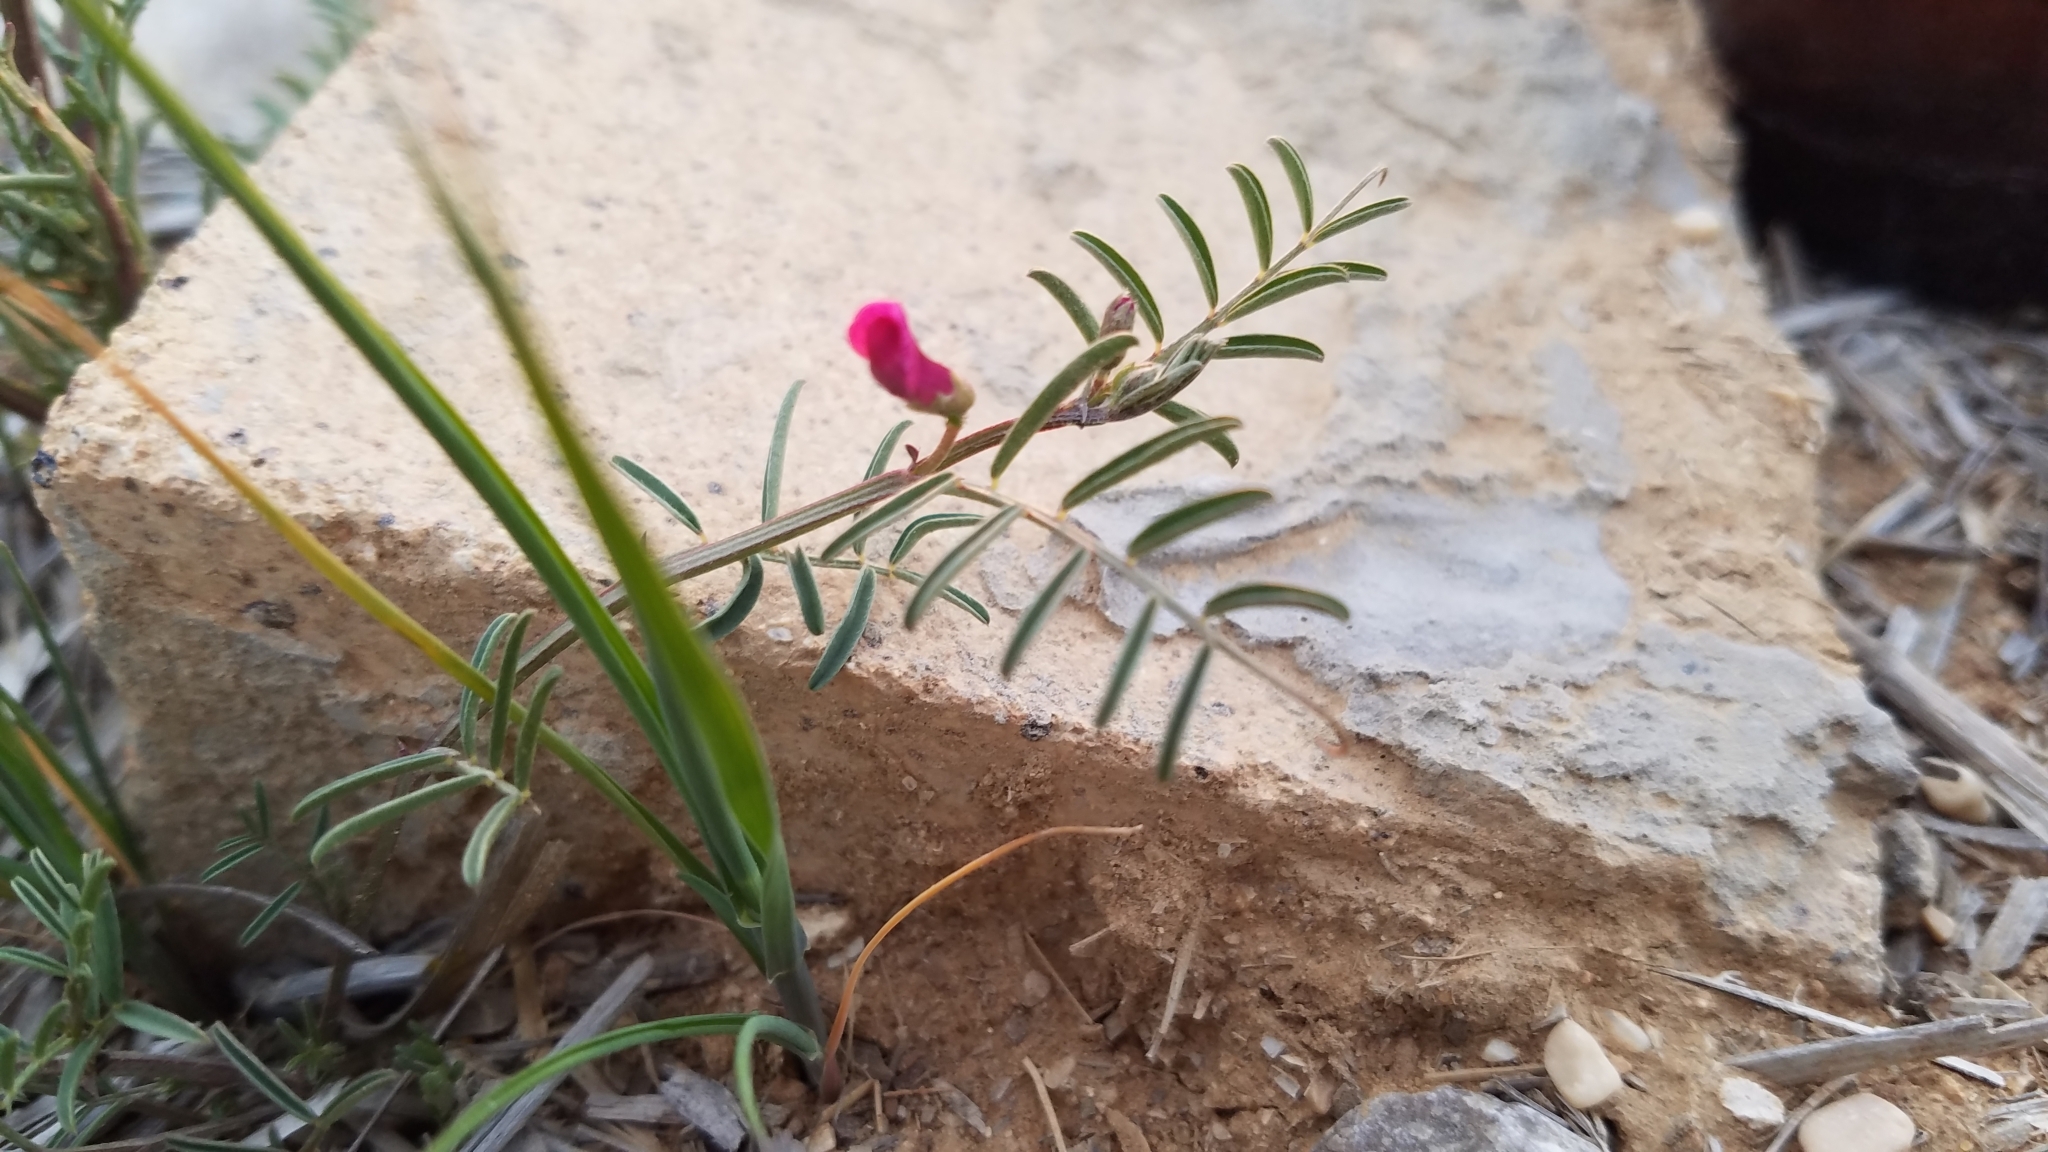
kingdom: Plantae
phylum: Tracheophyta
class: Magnoliopsida
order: Fabales
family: Fabaceae
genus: Vicia
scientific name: Vicia monantha
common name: Barn vetch
